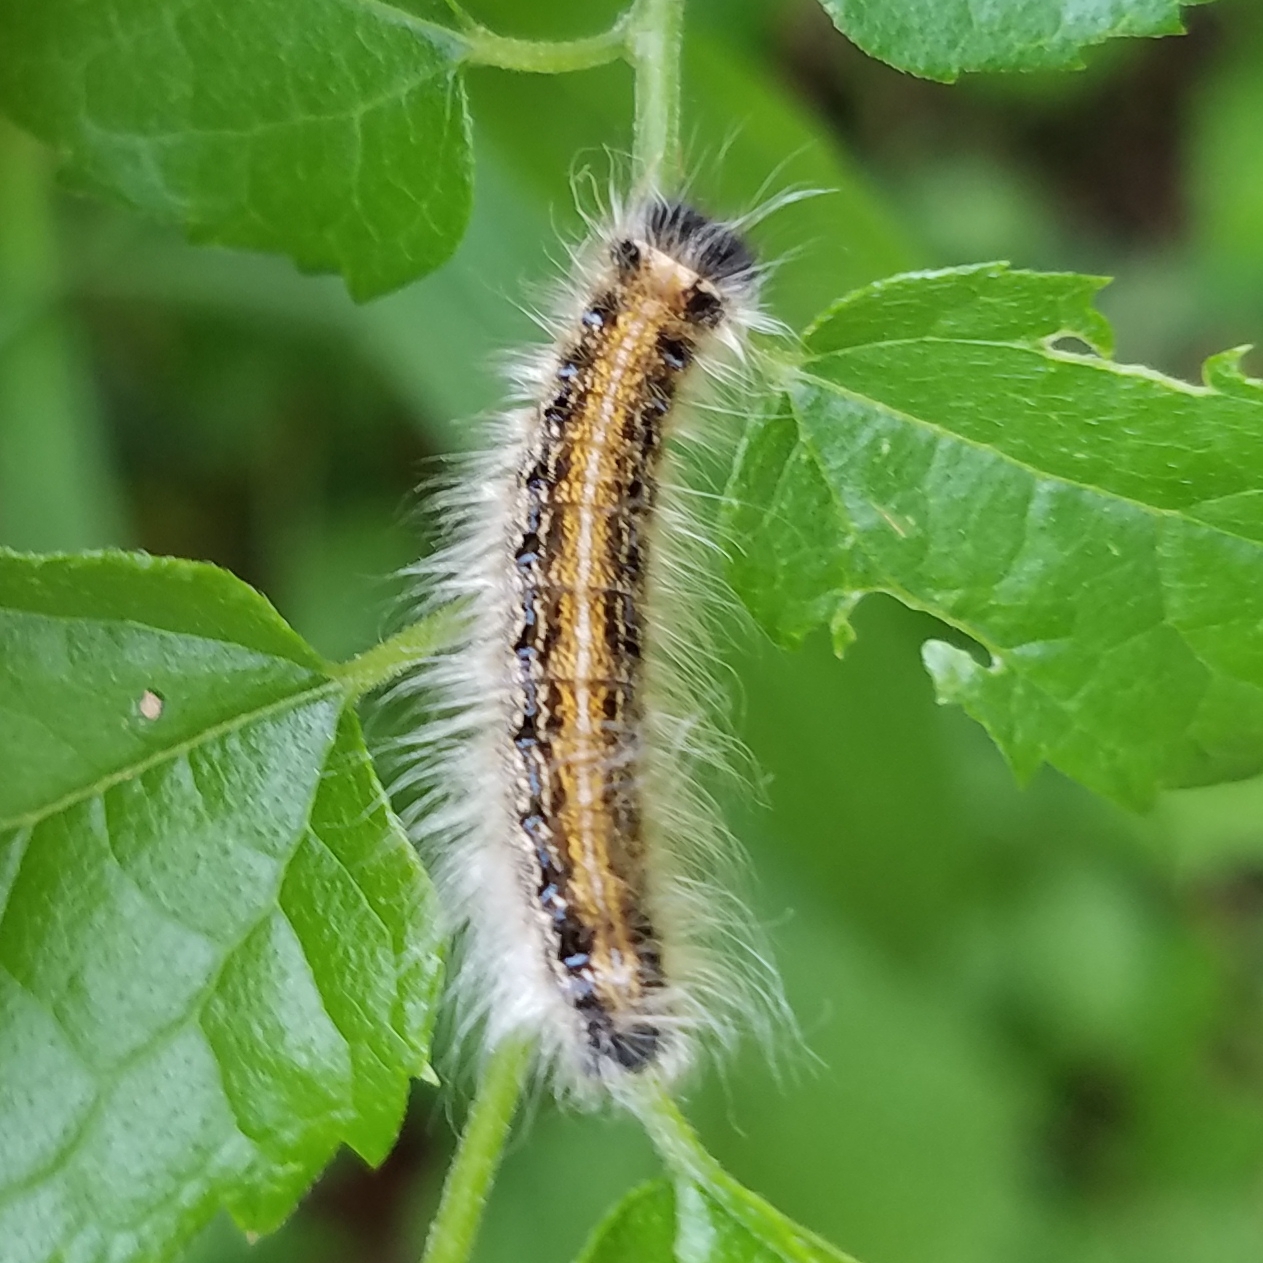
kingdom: Animalia
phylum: Arthropoda
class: Insecta
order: Lepidoptera
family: Lasiocampidae
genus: Malacosoma
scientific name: Malacosoma americana
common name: Eastern tent caterpillar moth
